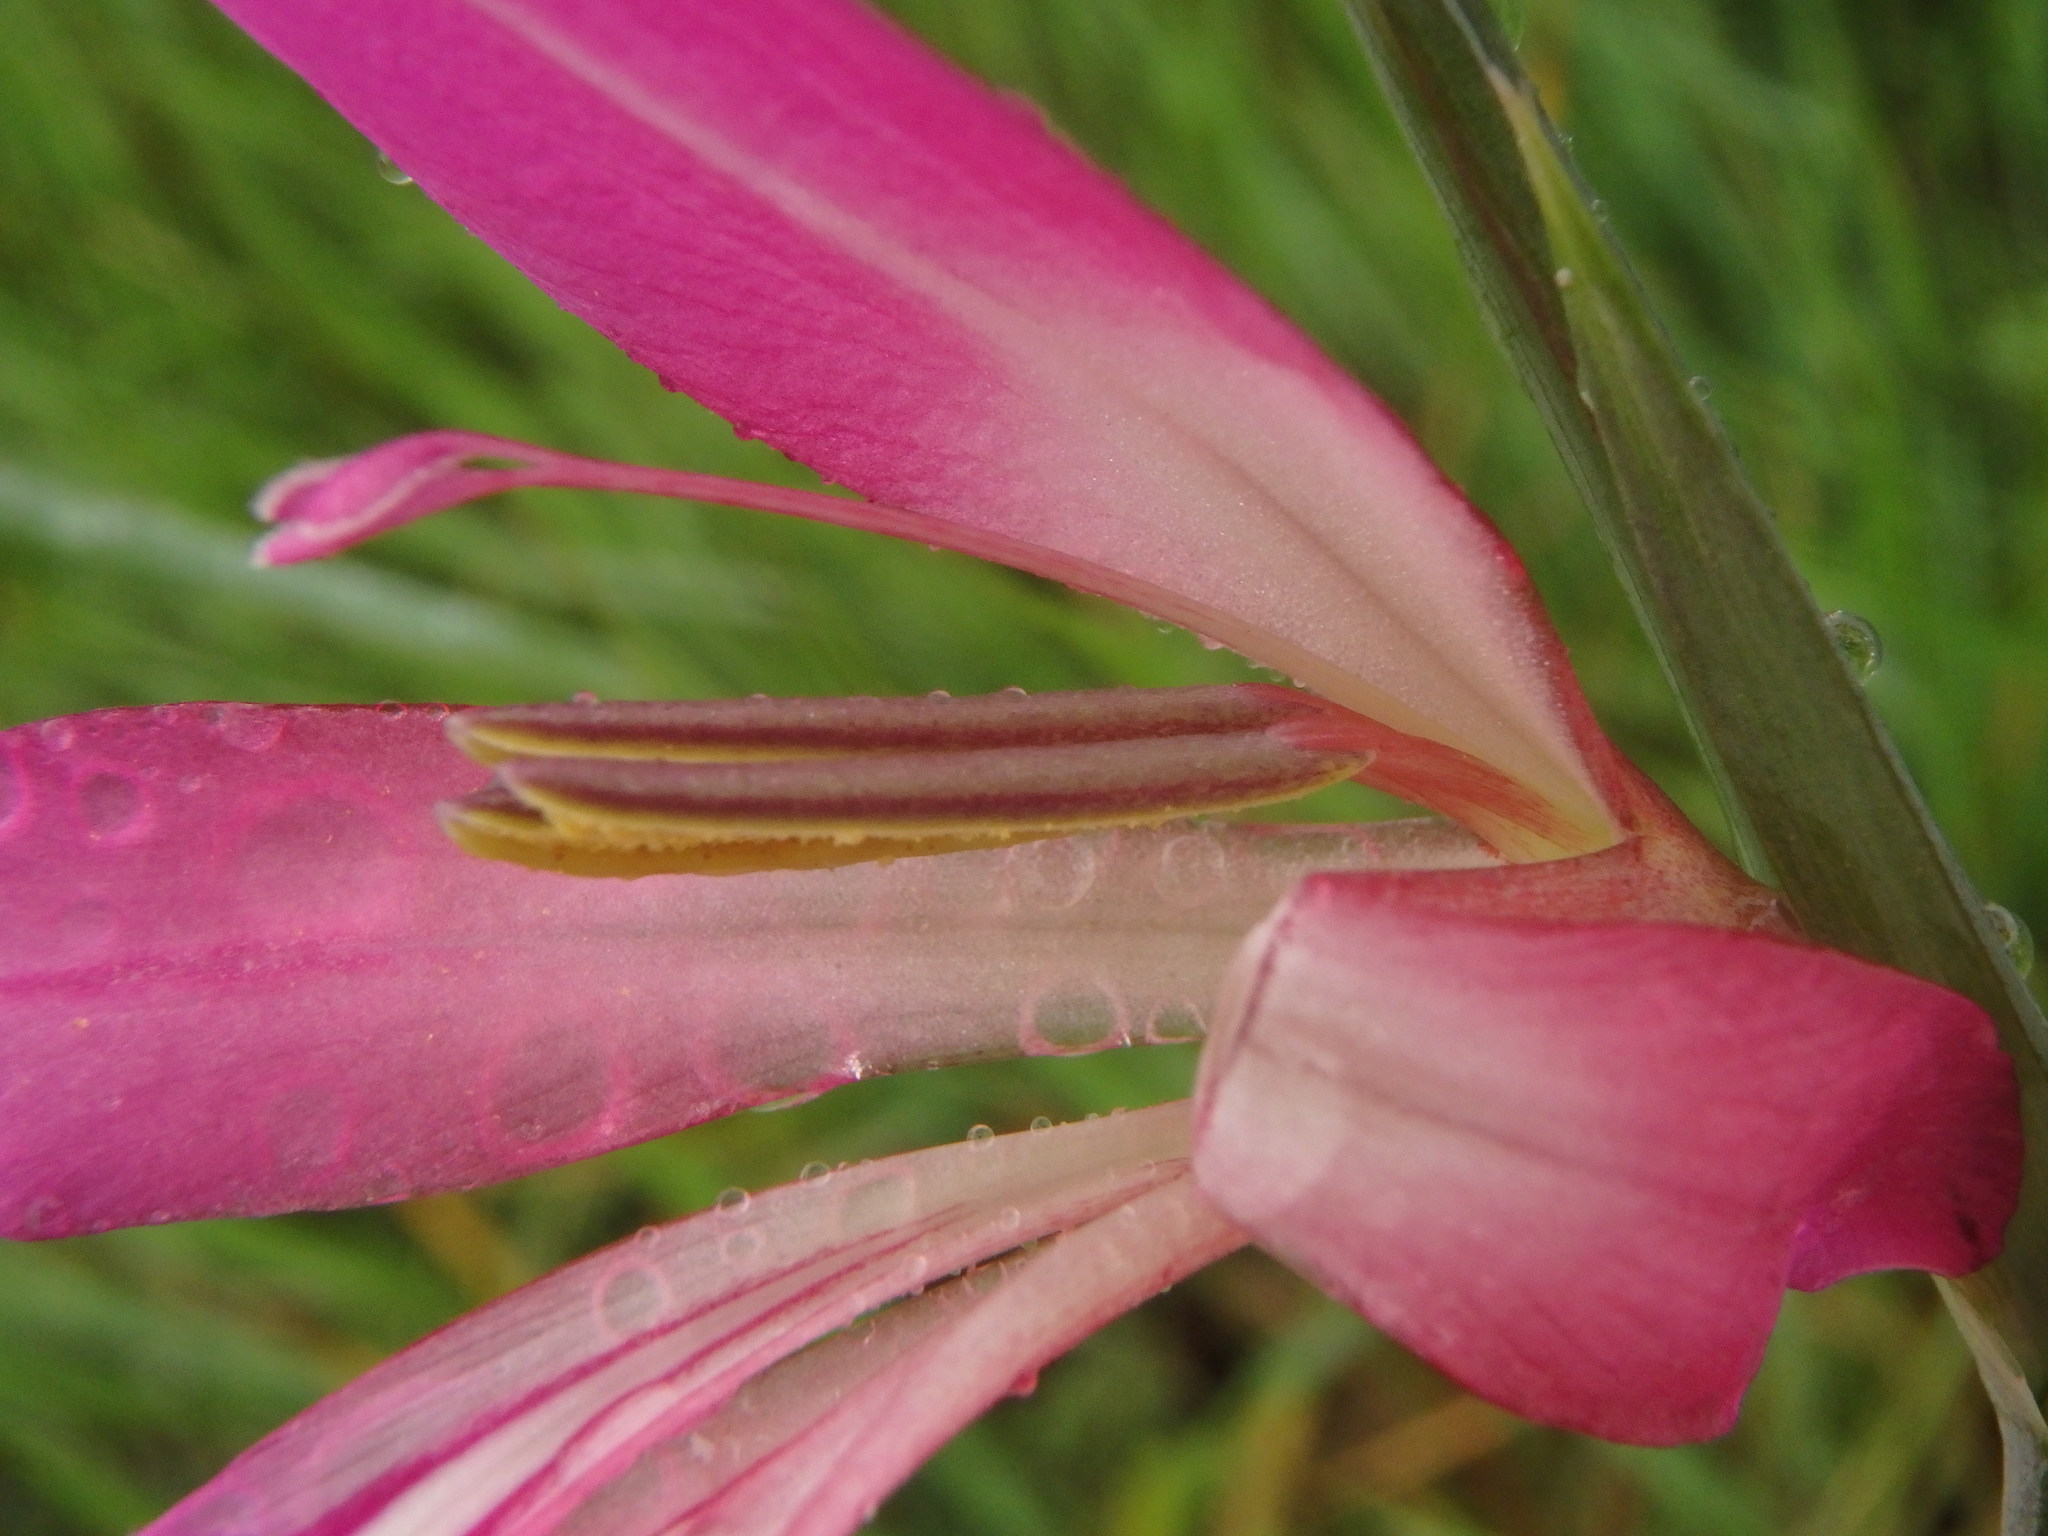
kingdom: Plantae
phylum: Tracheophyta
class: Liliopsida
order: Asparagales
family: Iridaceae
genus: Gladiolus
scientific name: Gladiolus italicus
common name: Field gladiolus
